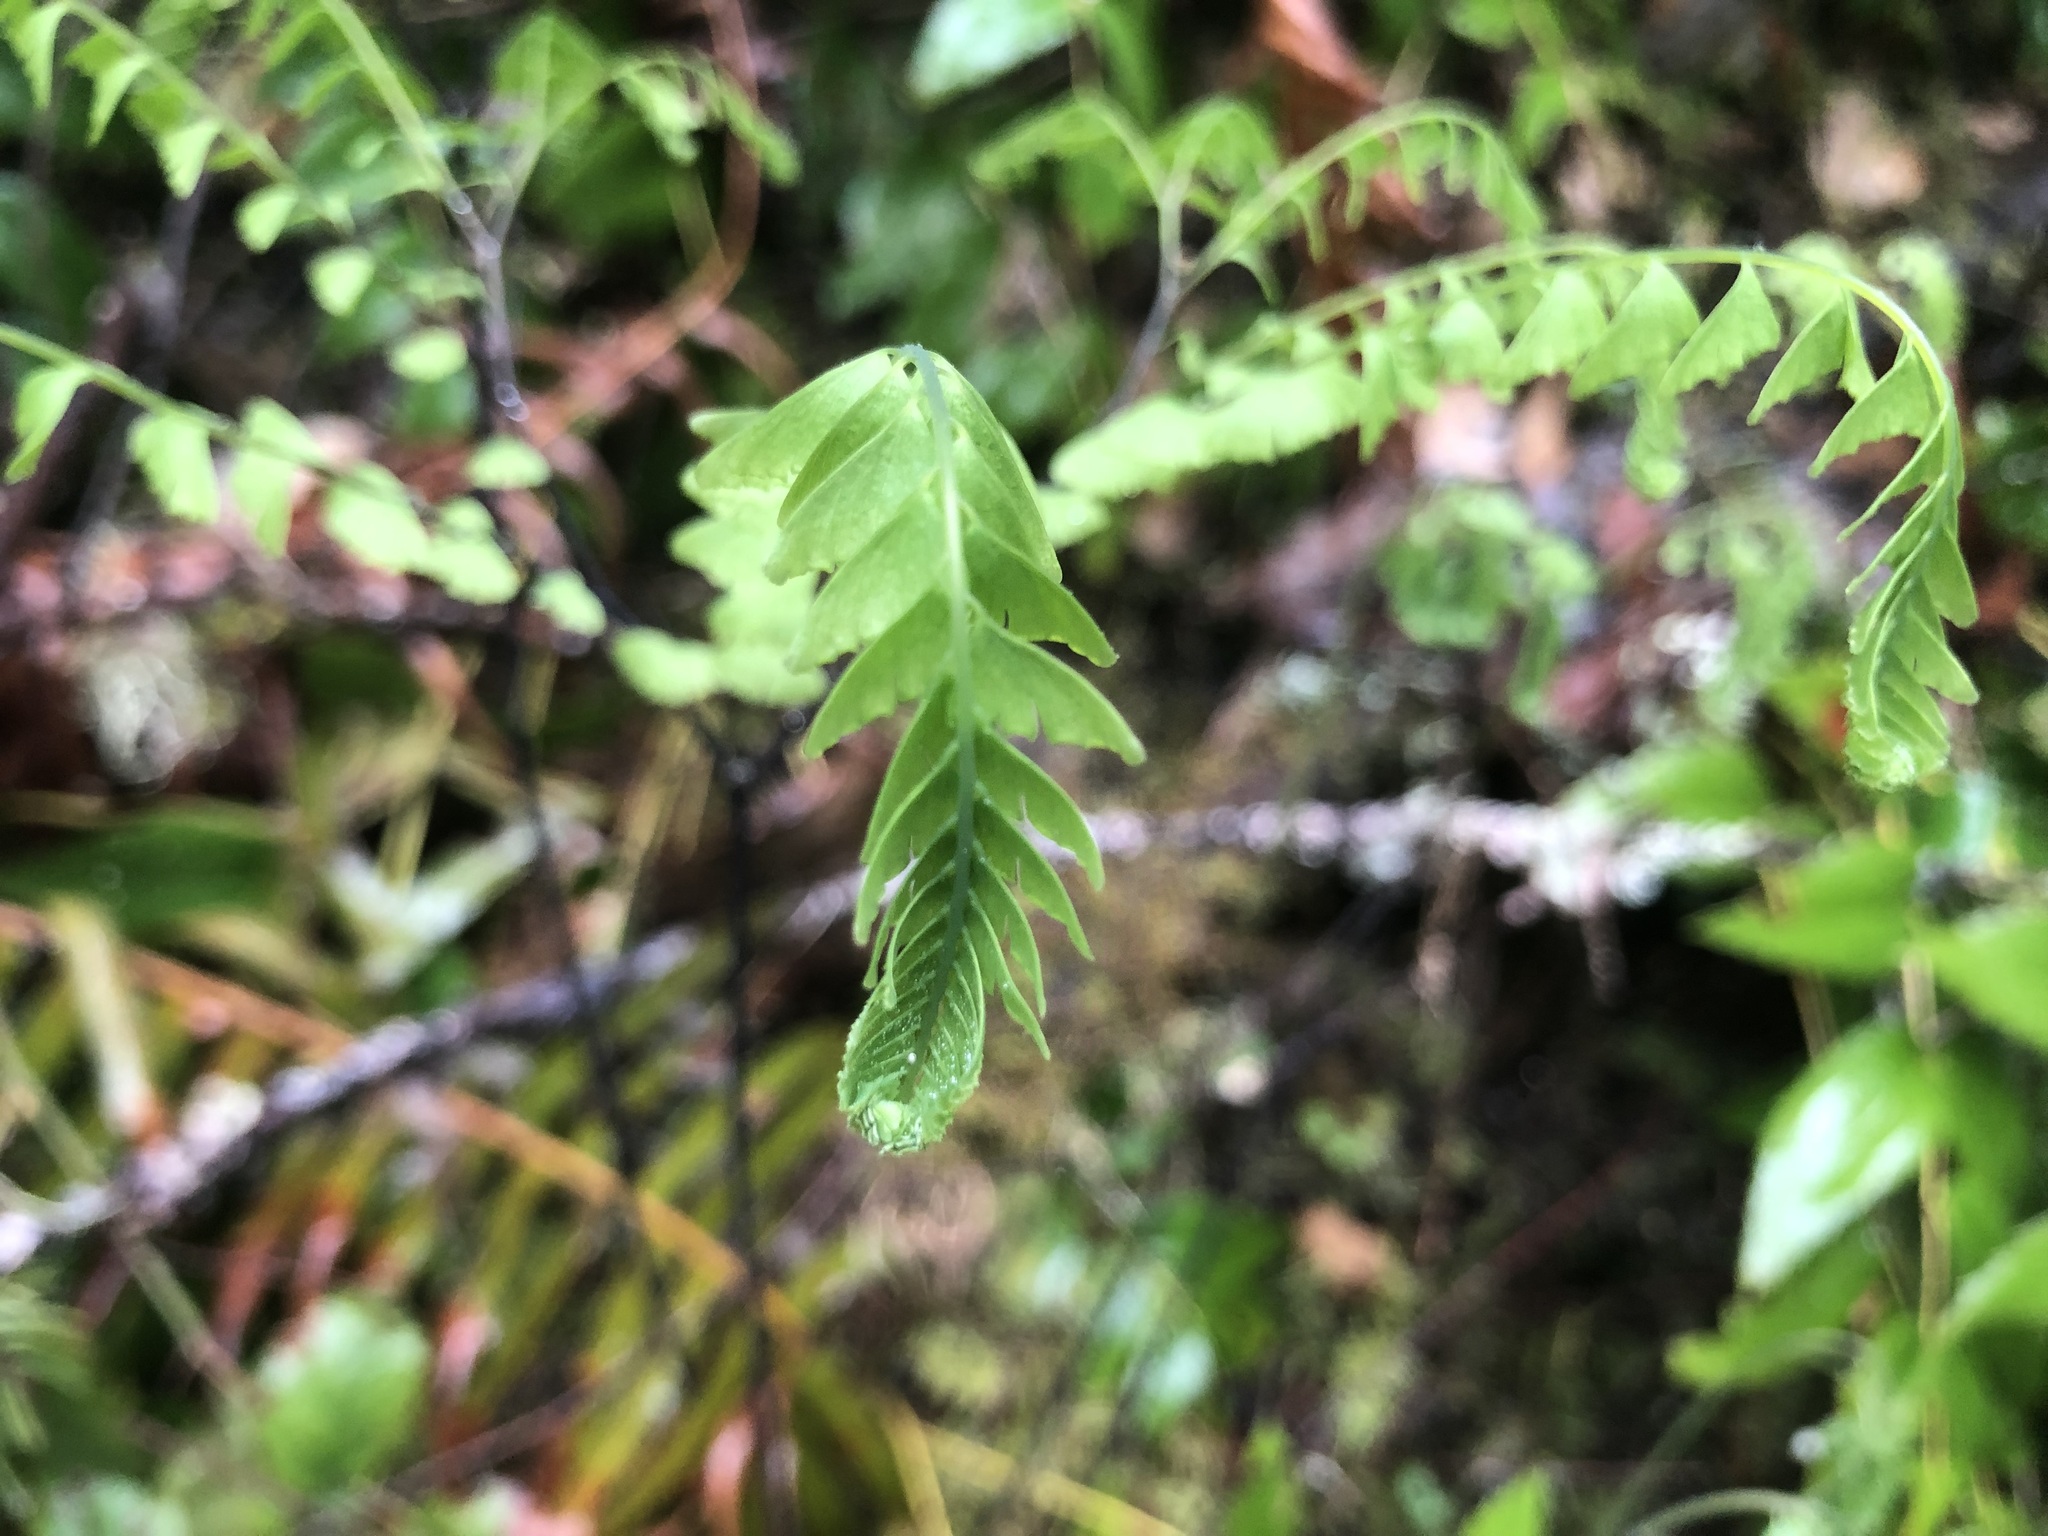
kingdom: Plantae
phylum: Tracheophyta
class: Polypodiopsida
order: Polypodiales
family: Pteridaceae
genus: Adiantum
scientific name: Adiantum aleuticum
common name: Aleutian maidenhair fern
